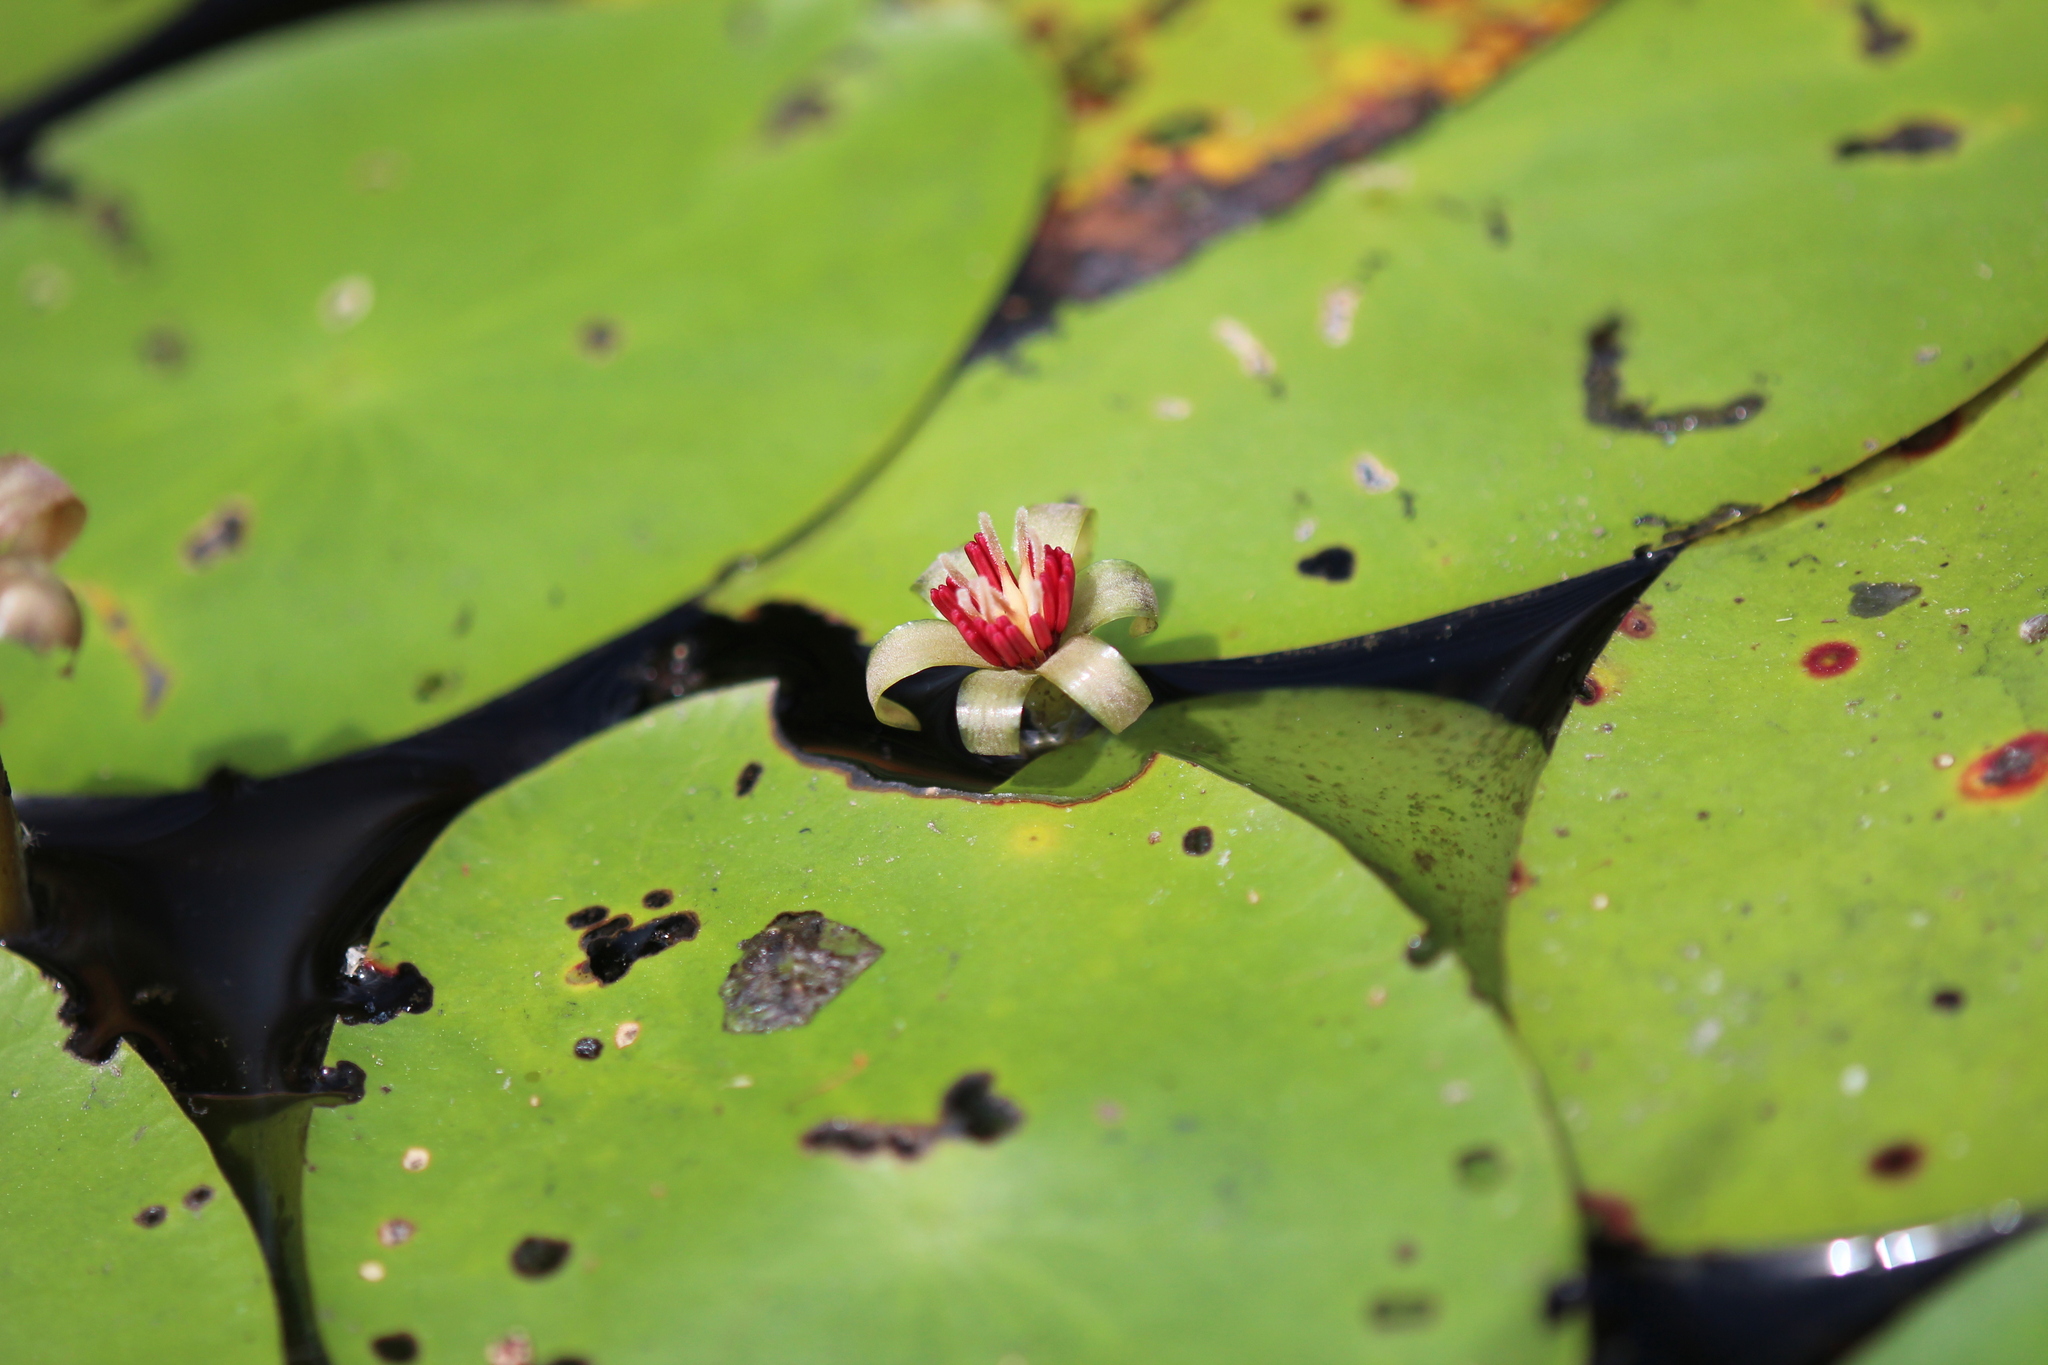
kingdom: Plantae
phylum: Tracheophyta
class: Magnoliopsida
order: Nymphaeales
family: Cabombaceae
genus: Brasenia
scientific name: Brasenia schreberi
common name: Water-shield
